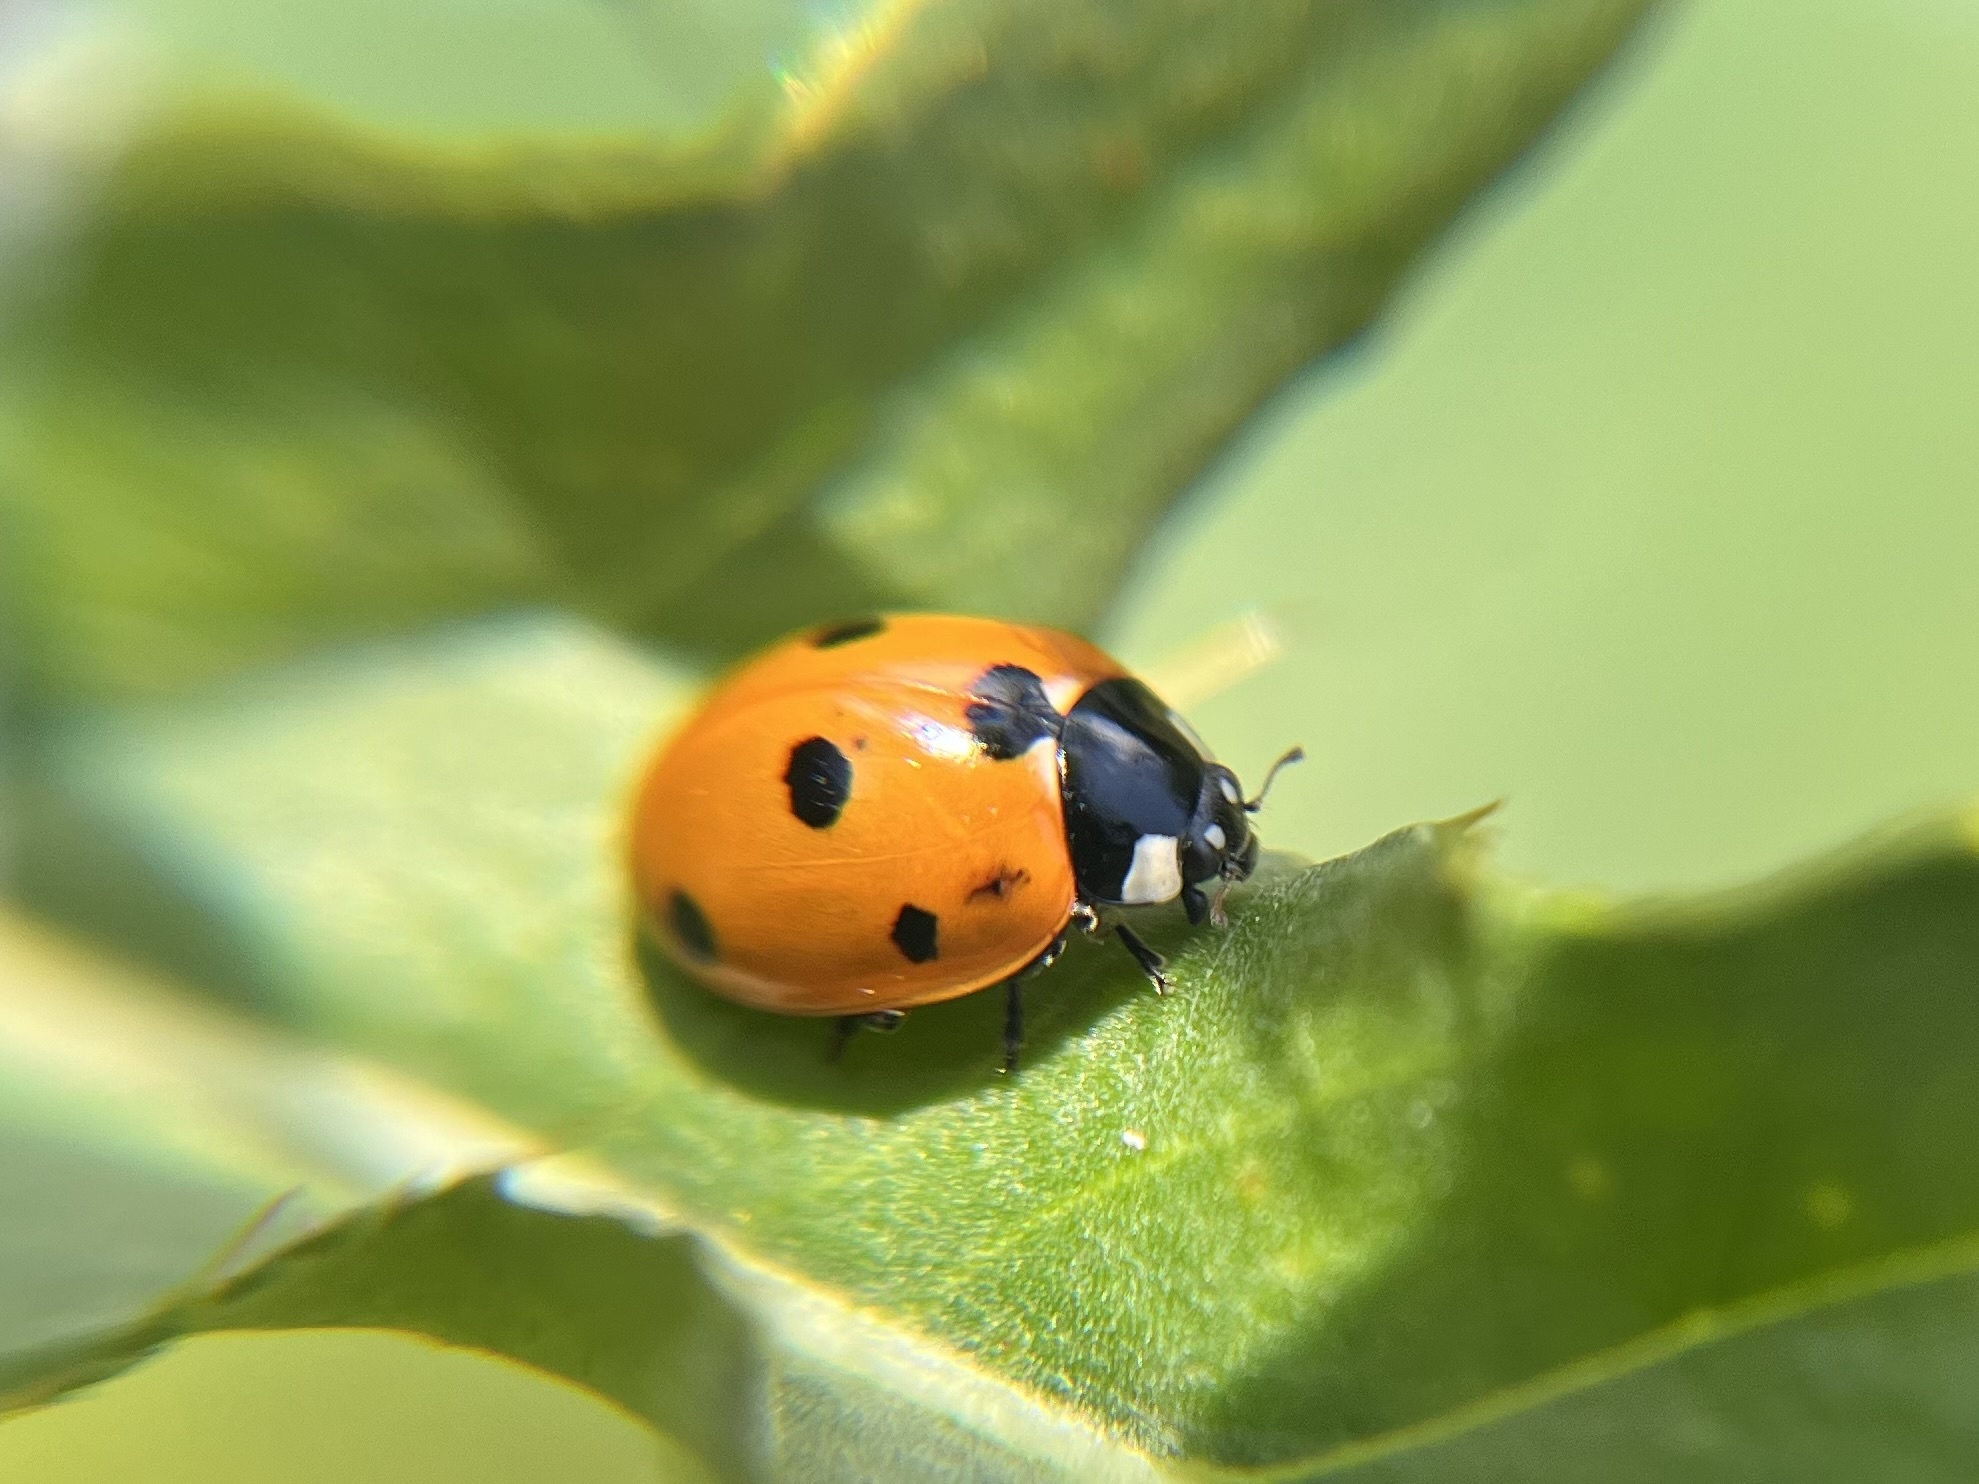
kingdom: Animalia
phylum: Arthropoda
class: Insecta
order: Coleoptera
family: Coccinellidae
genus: Coccinella
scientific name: Coccinella septempunctata
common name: Sevenspotted lady beetle
